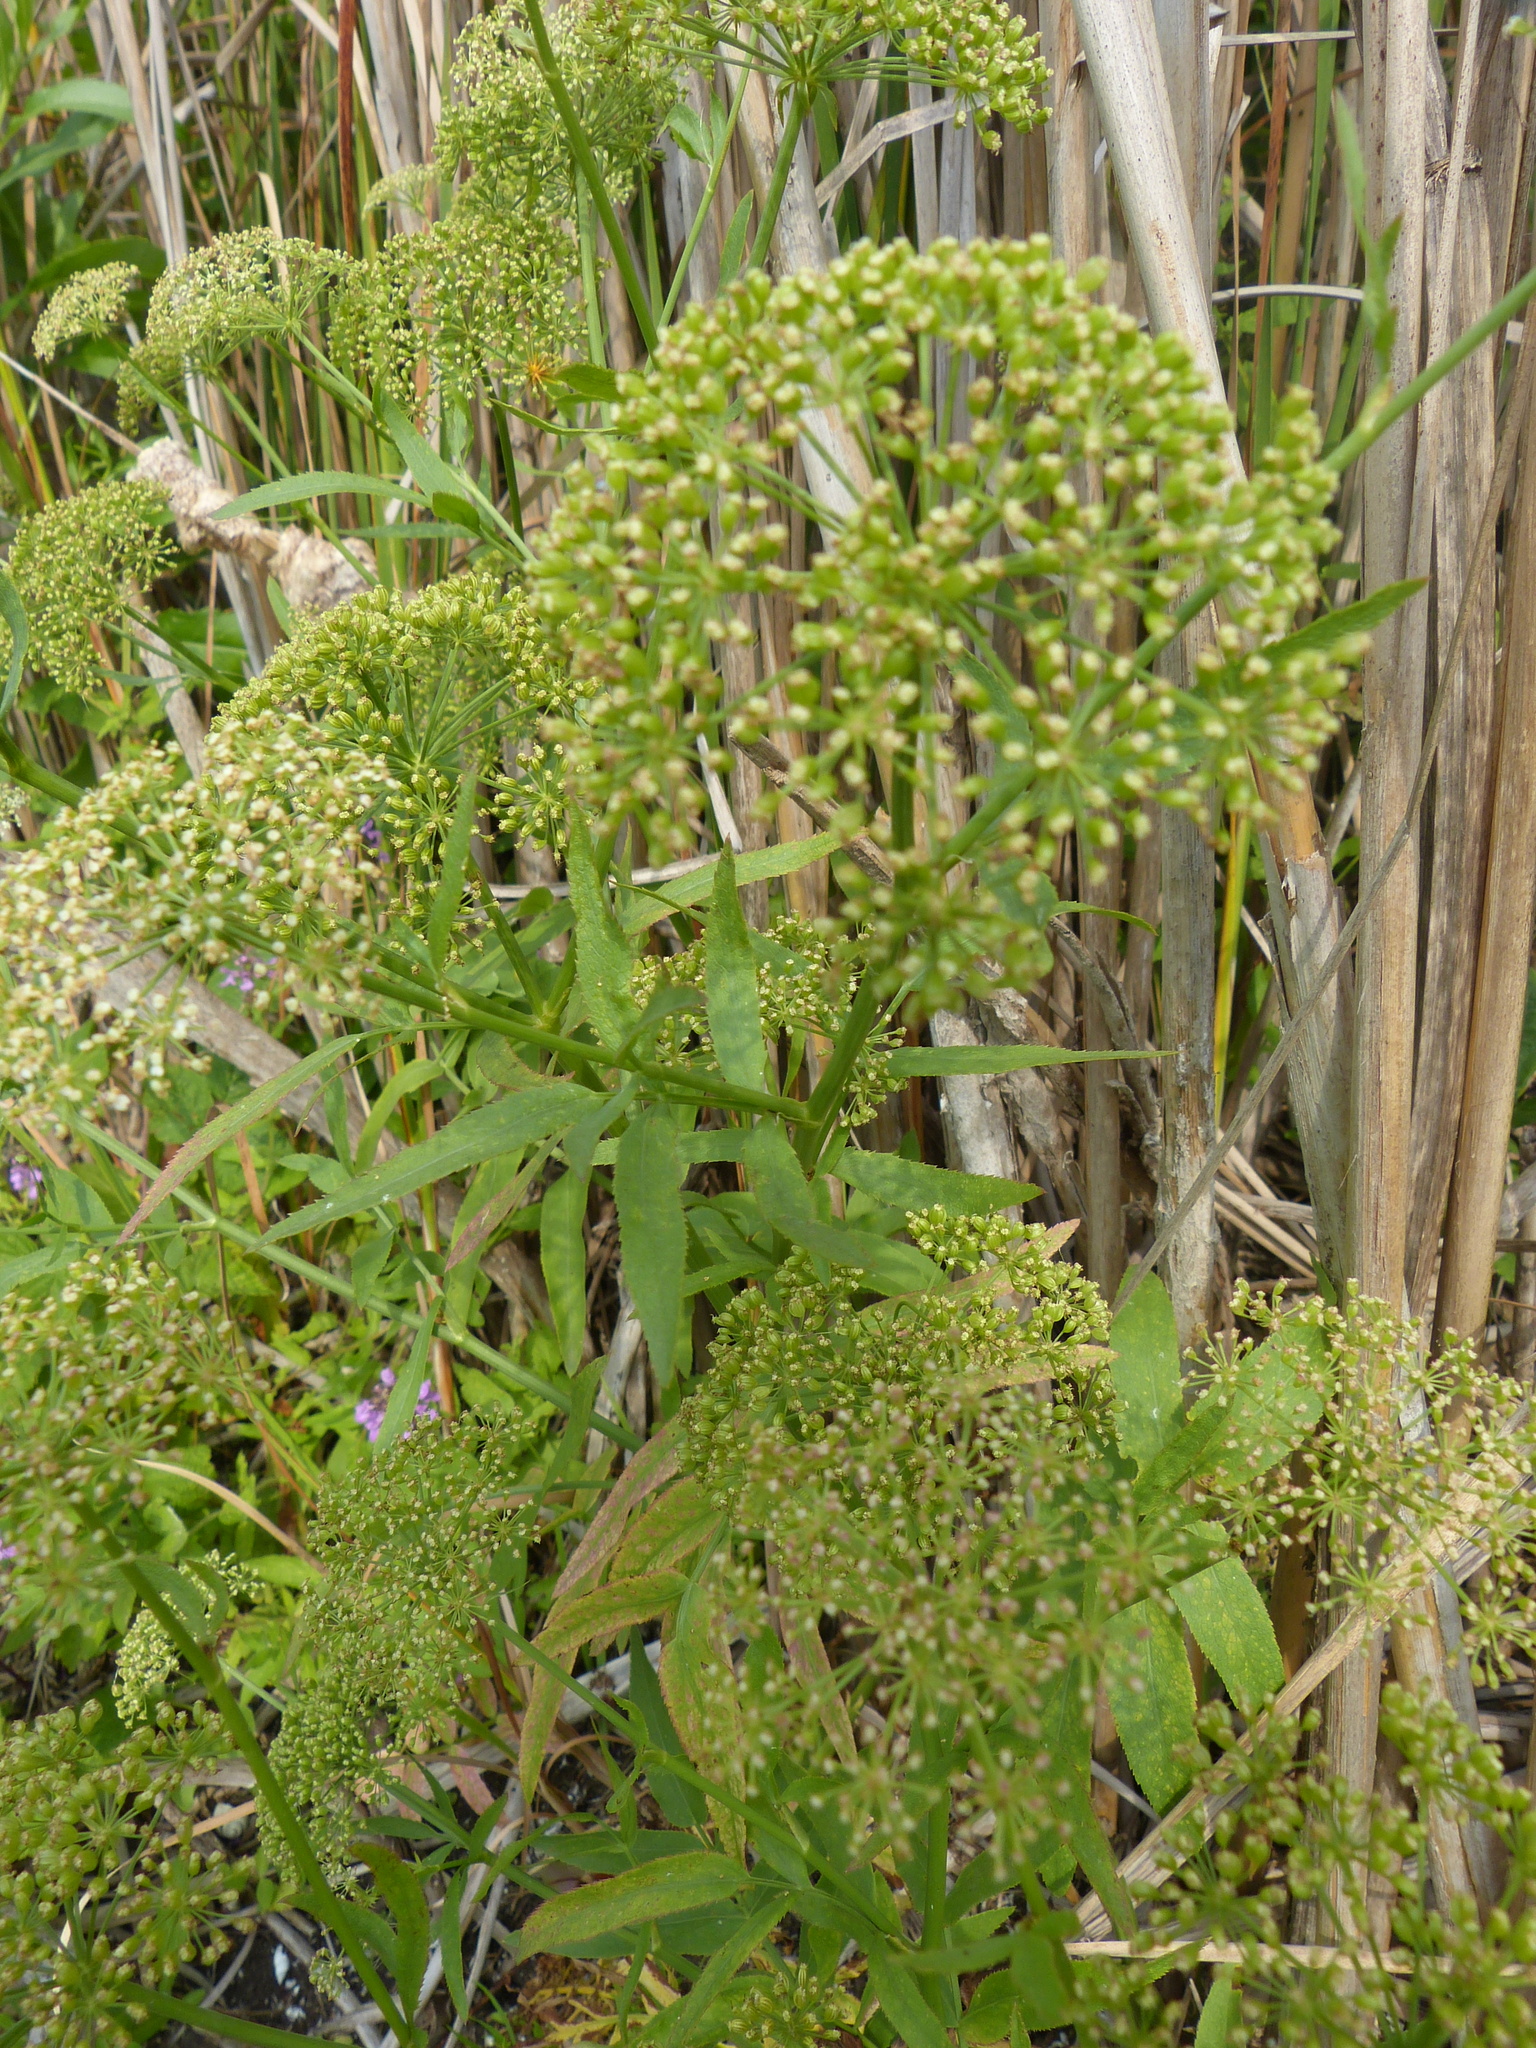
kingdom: Plantae
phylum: Tracheophyta
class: Magnoliopsida
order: Apiales
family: Apiaceae
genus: Sium
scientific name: Sium latifolium
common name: Greater water-parsnip
